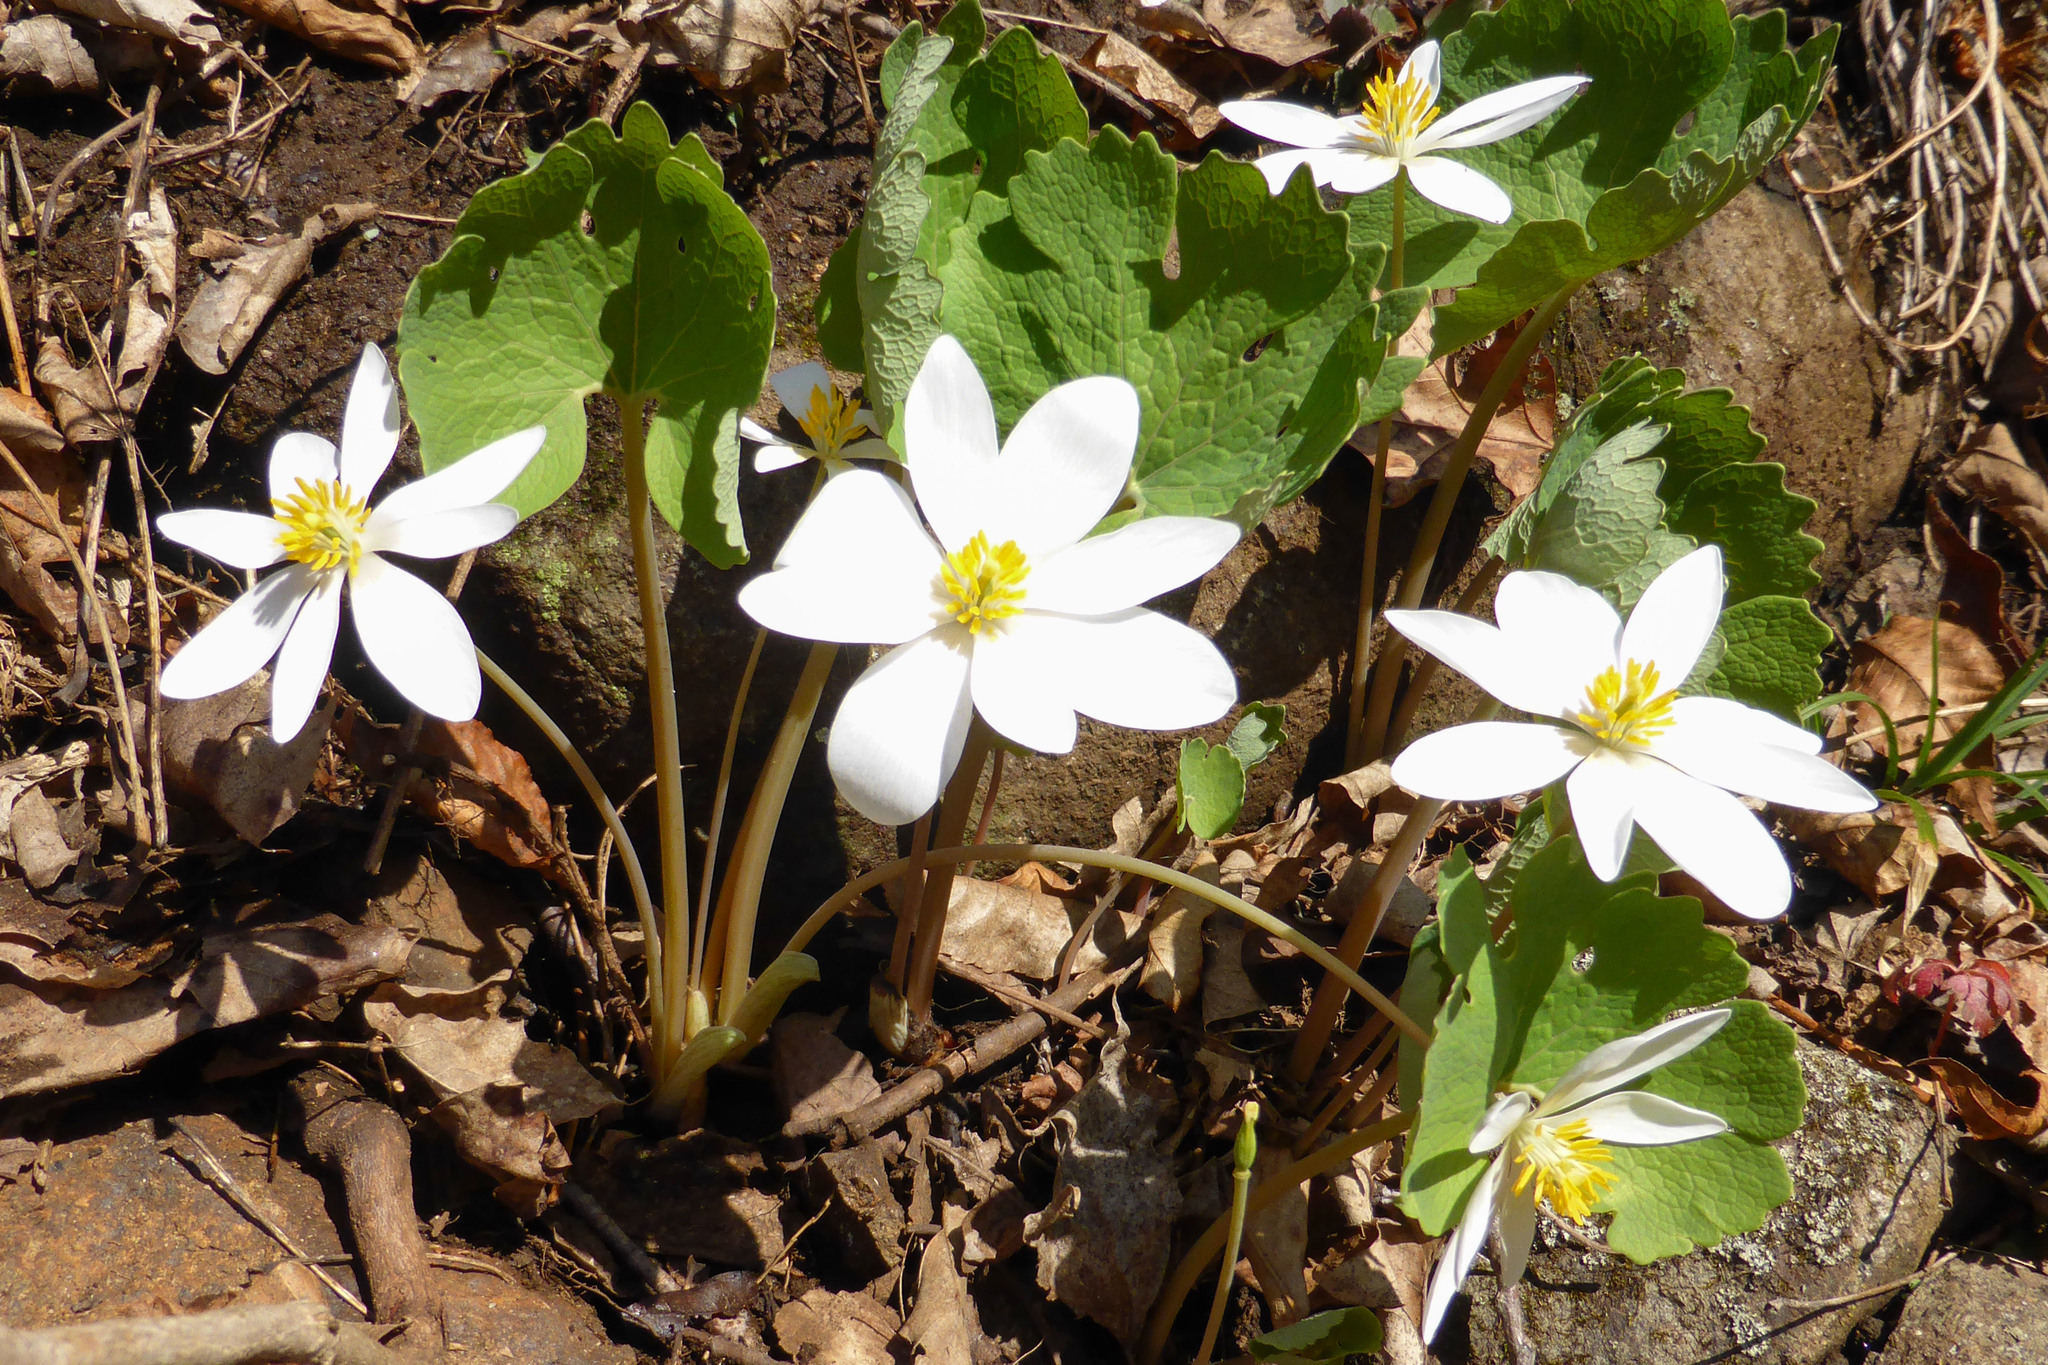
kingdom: Plantae
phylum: Tracheophyta
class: Magnoliopsida
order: Ranunculales
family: Papaveraceae
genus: Sanguinaria
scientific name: Sanguinaria canadensis
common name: Bloodroot
